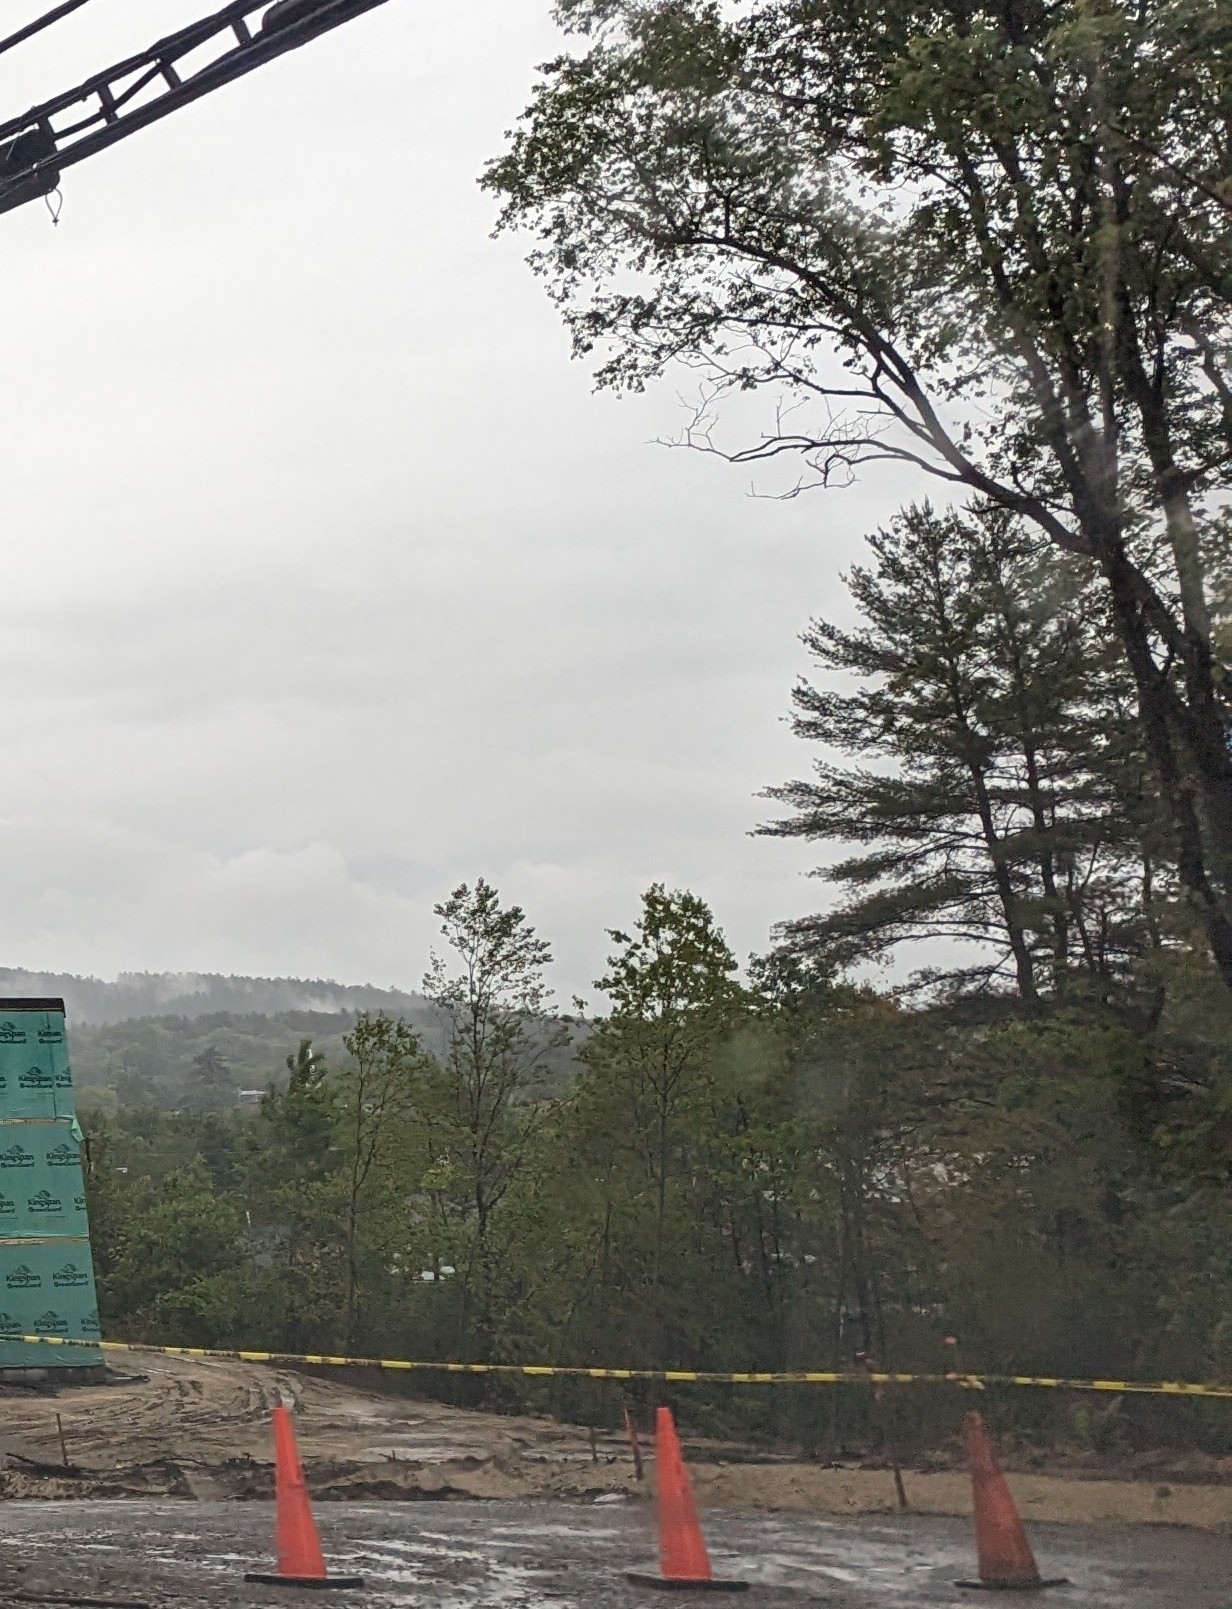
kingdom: Plantae
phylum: Tracheophyta
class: Pinopsida
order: Pinales
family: Pinaceae
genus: Pinus
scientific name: Pinus strobus
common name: Weymouth pine
